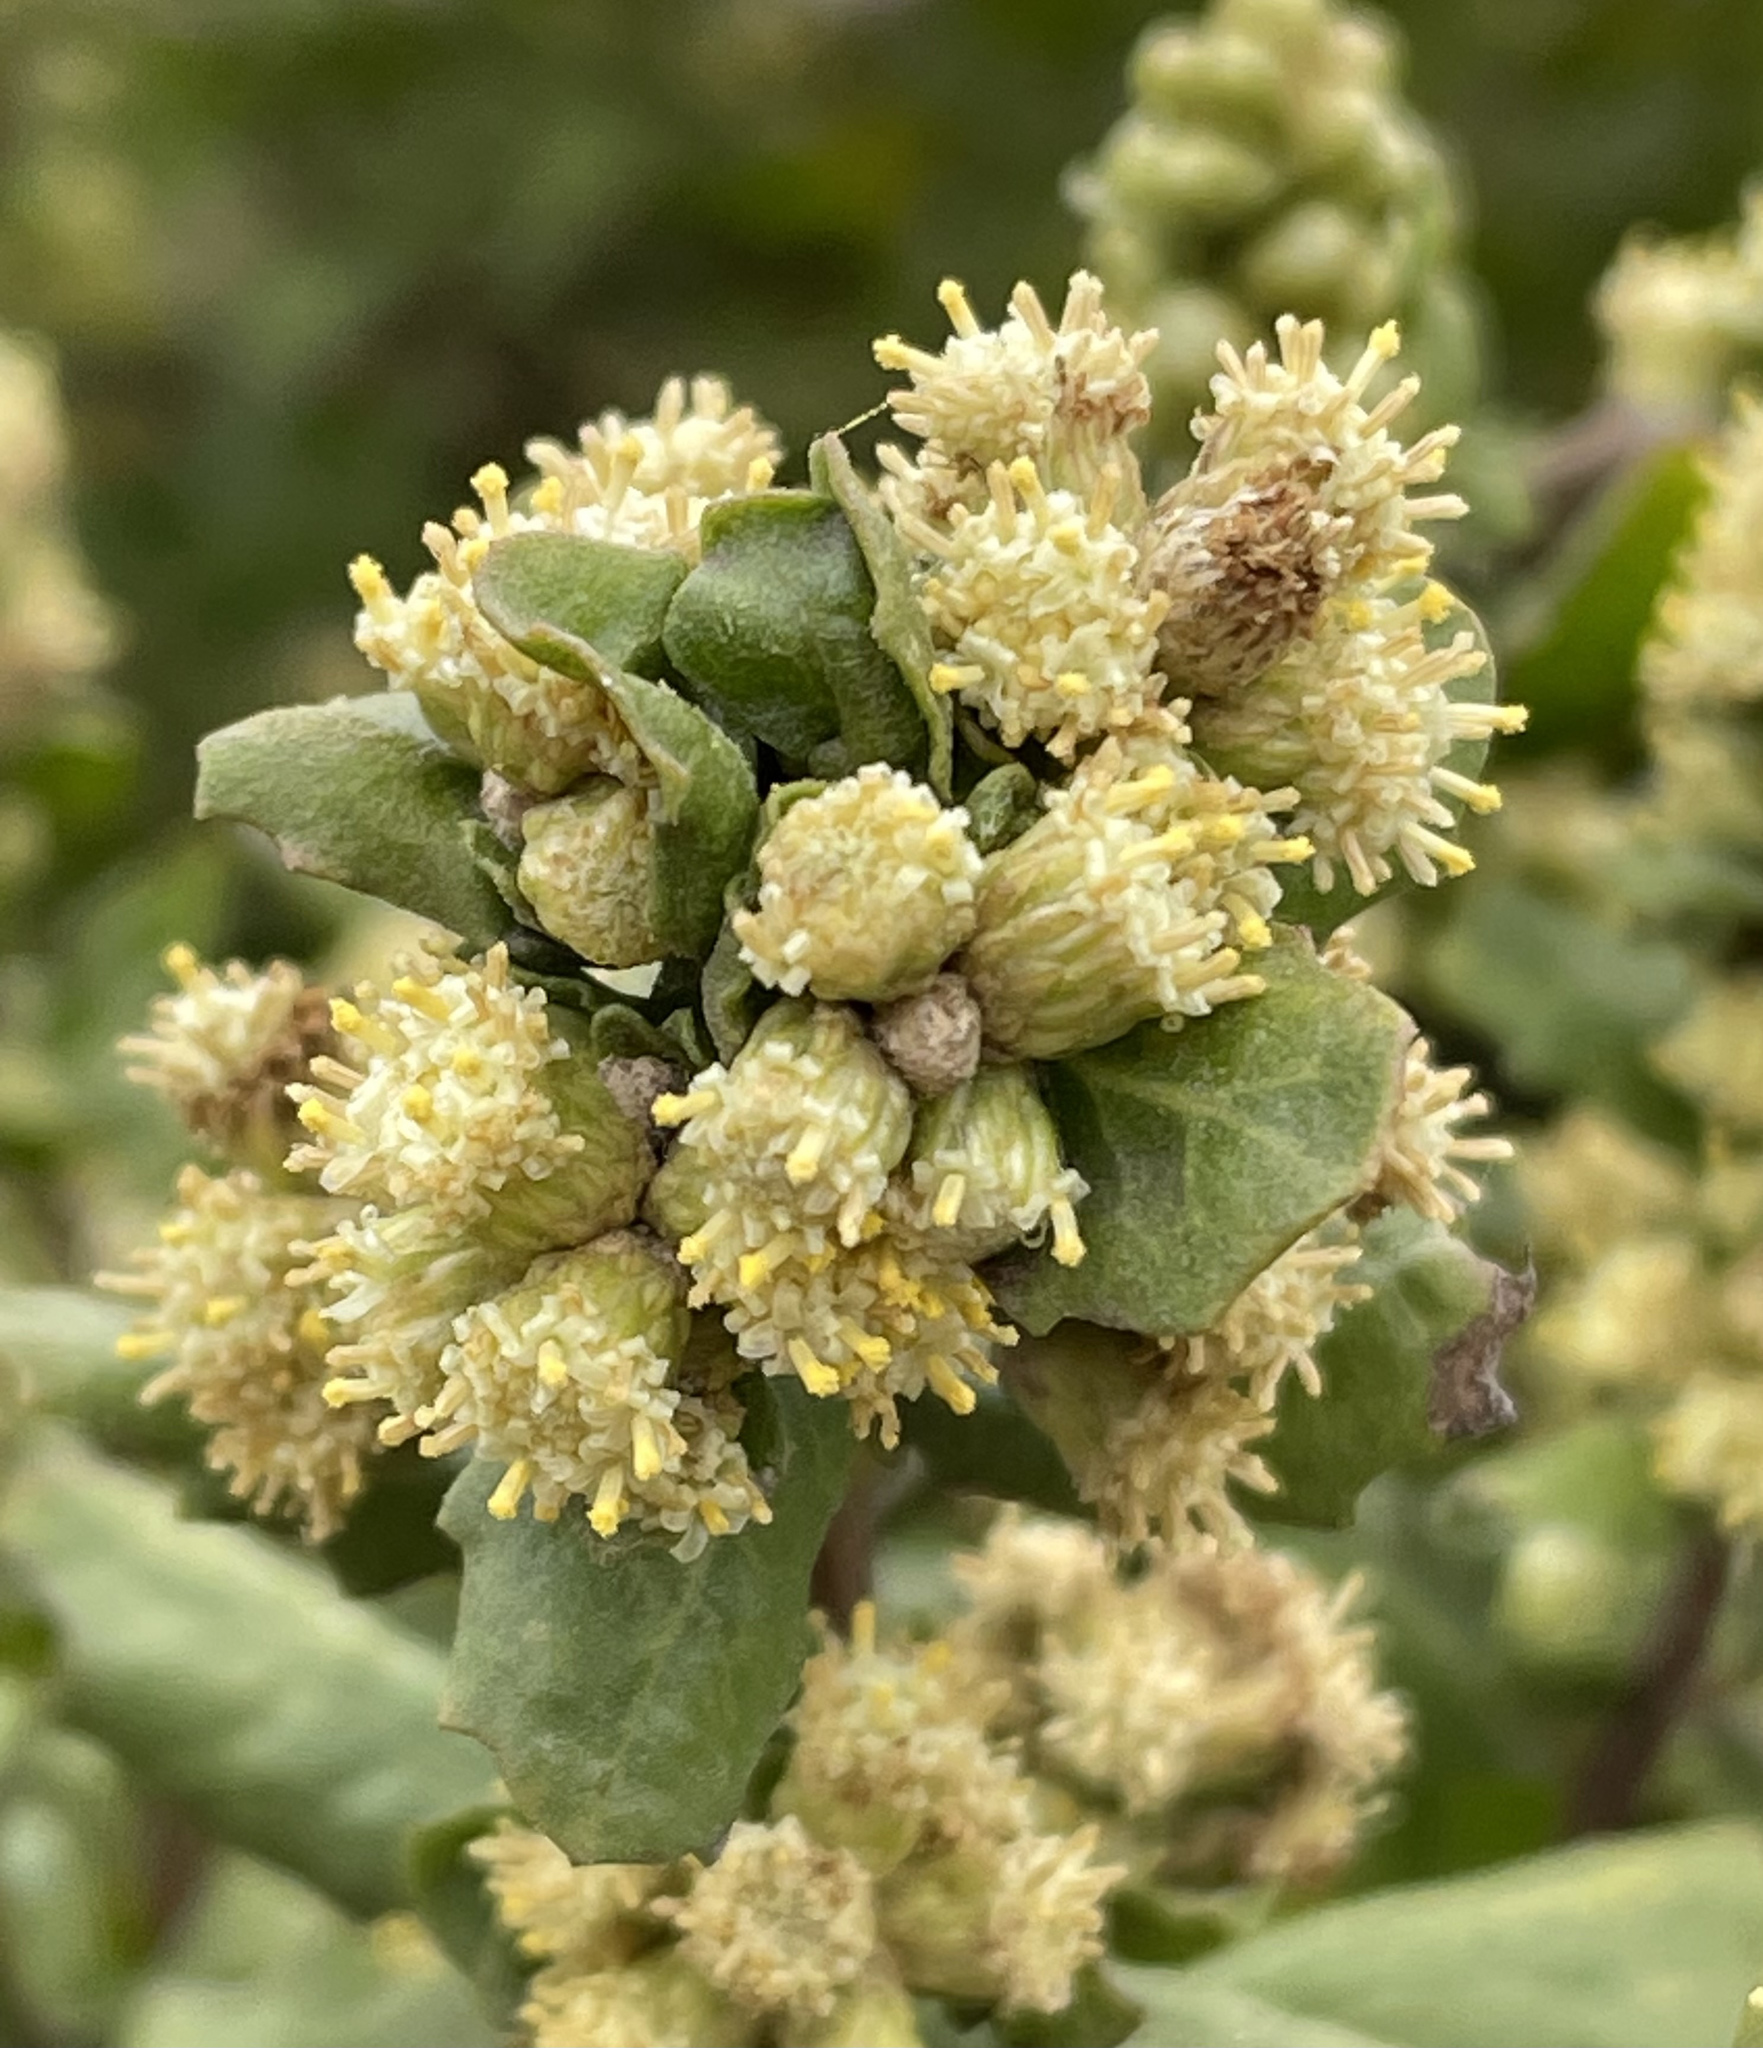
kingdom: Plantae
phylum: Tracheophyta
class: Magnoliopsida
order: Asterales
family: Asteraceae
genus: Baccharis
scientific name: Baccharis pilularis
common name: Coyotebrush
